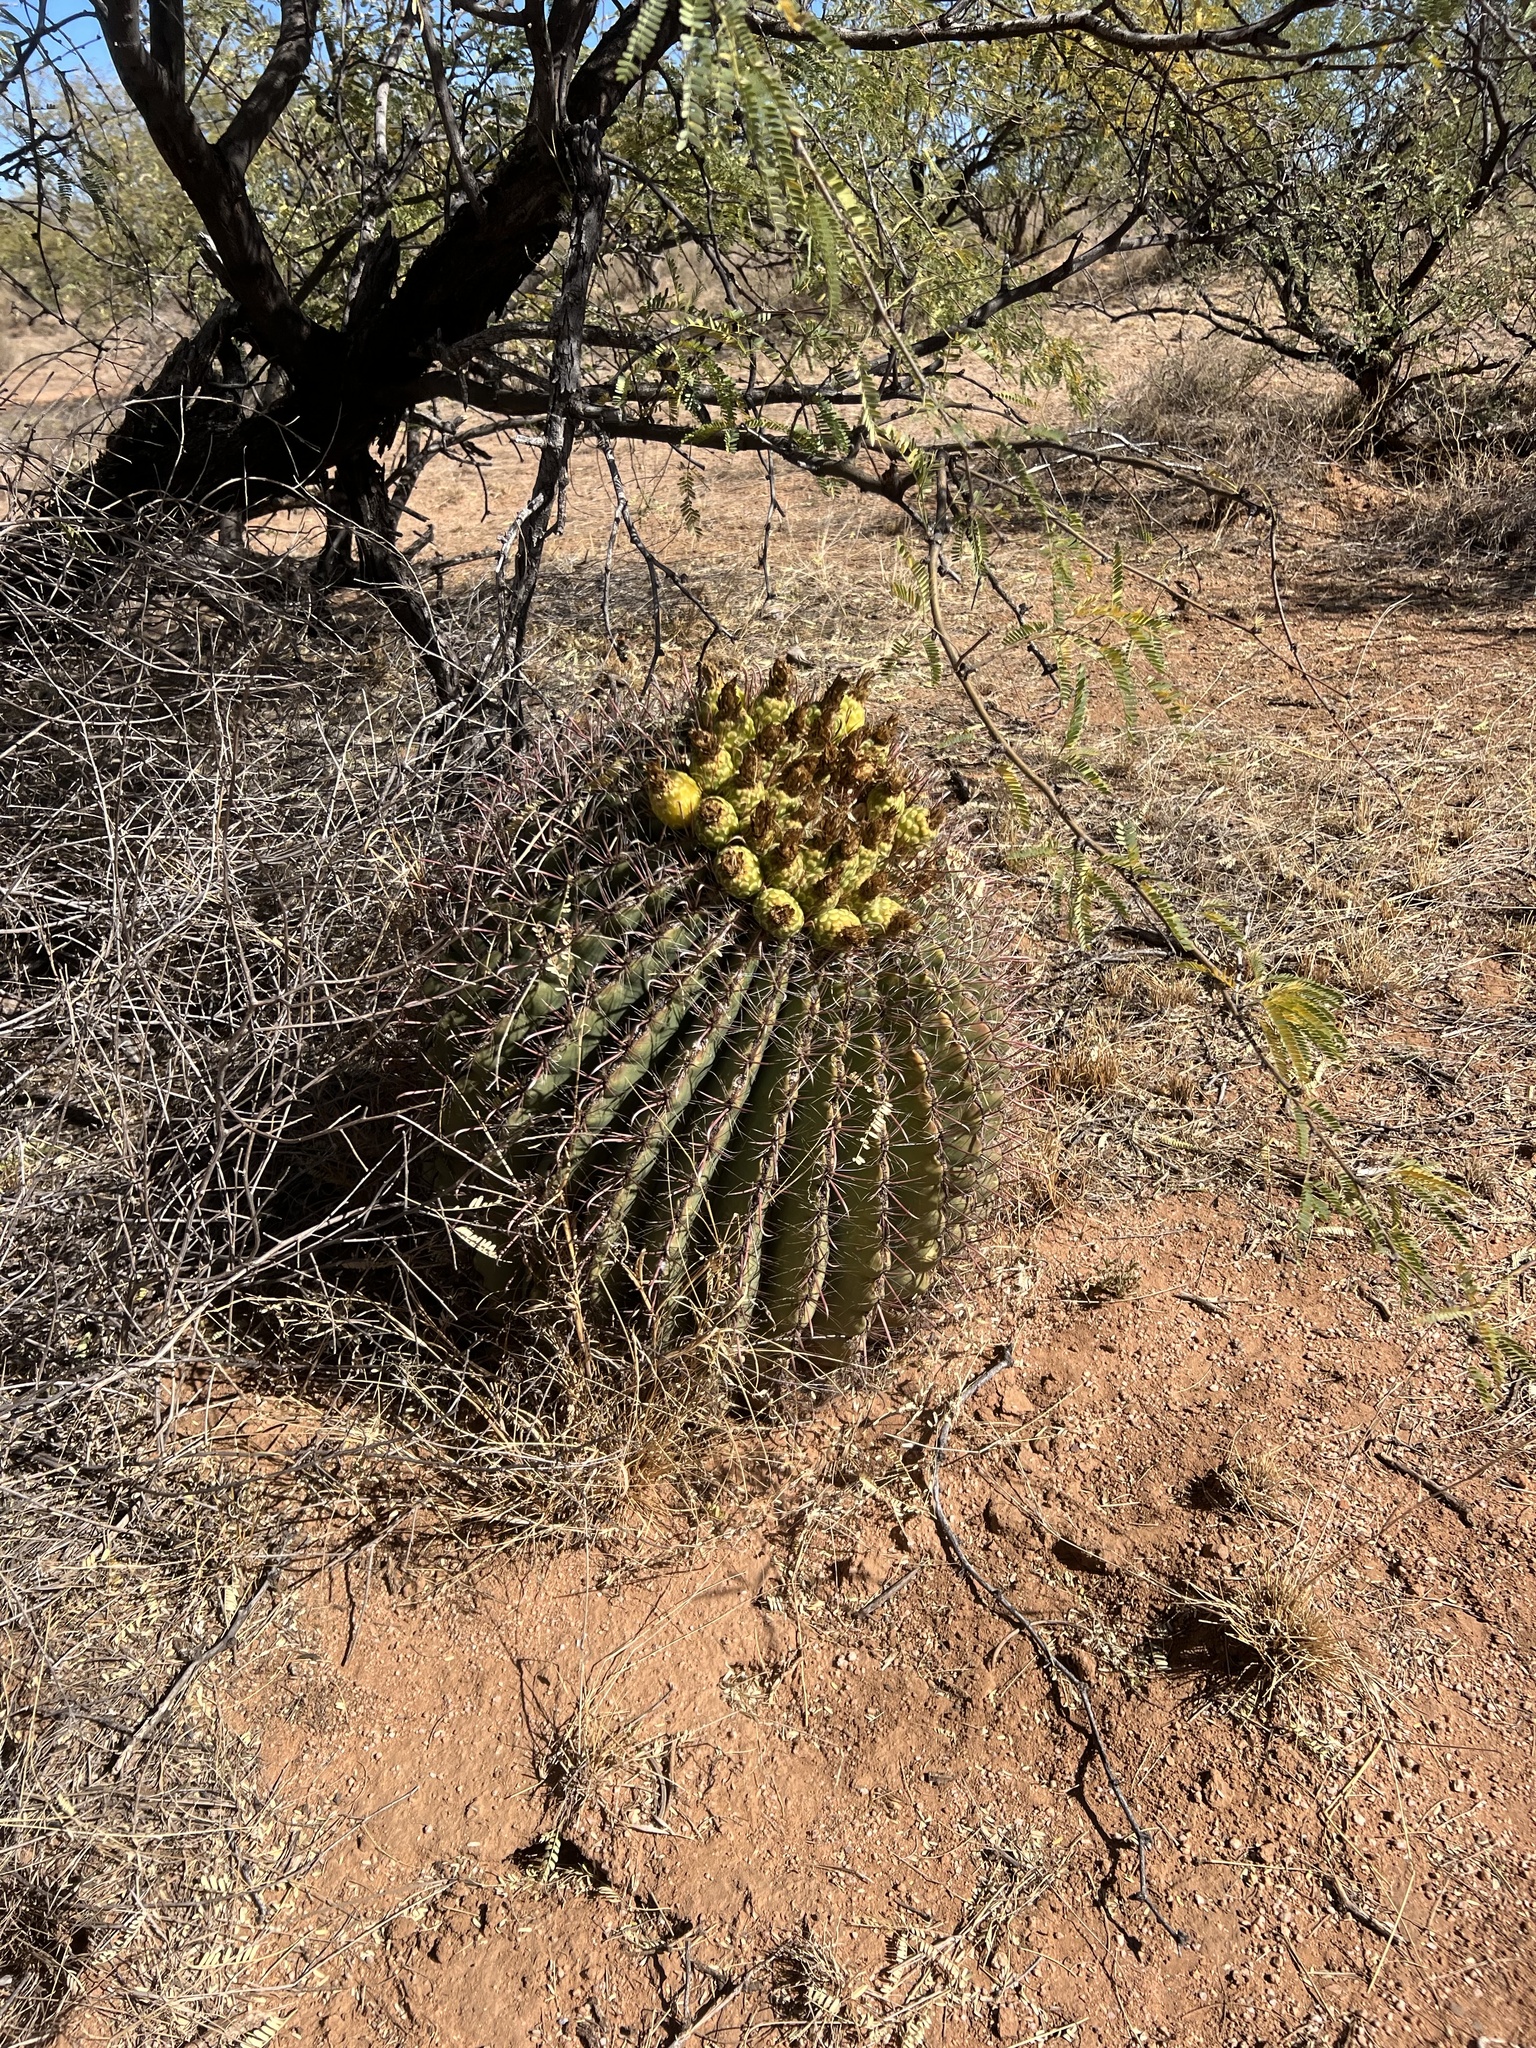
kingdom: Plantae
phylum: Tracheophyta
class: Magnoliopsida
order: Caryophyllales
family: Cactaceae
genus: Ferocactus
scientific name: Ferocactus wislizeni
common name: Candy barrel cactus
